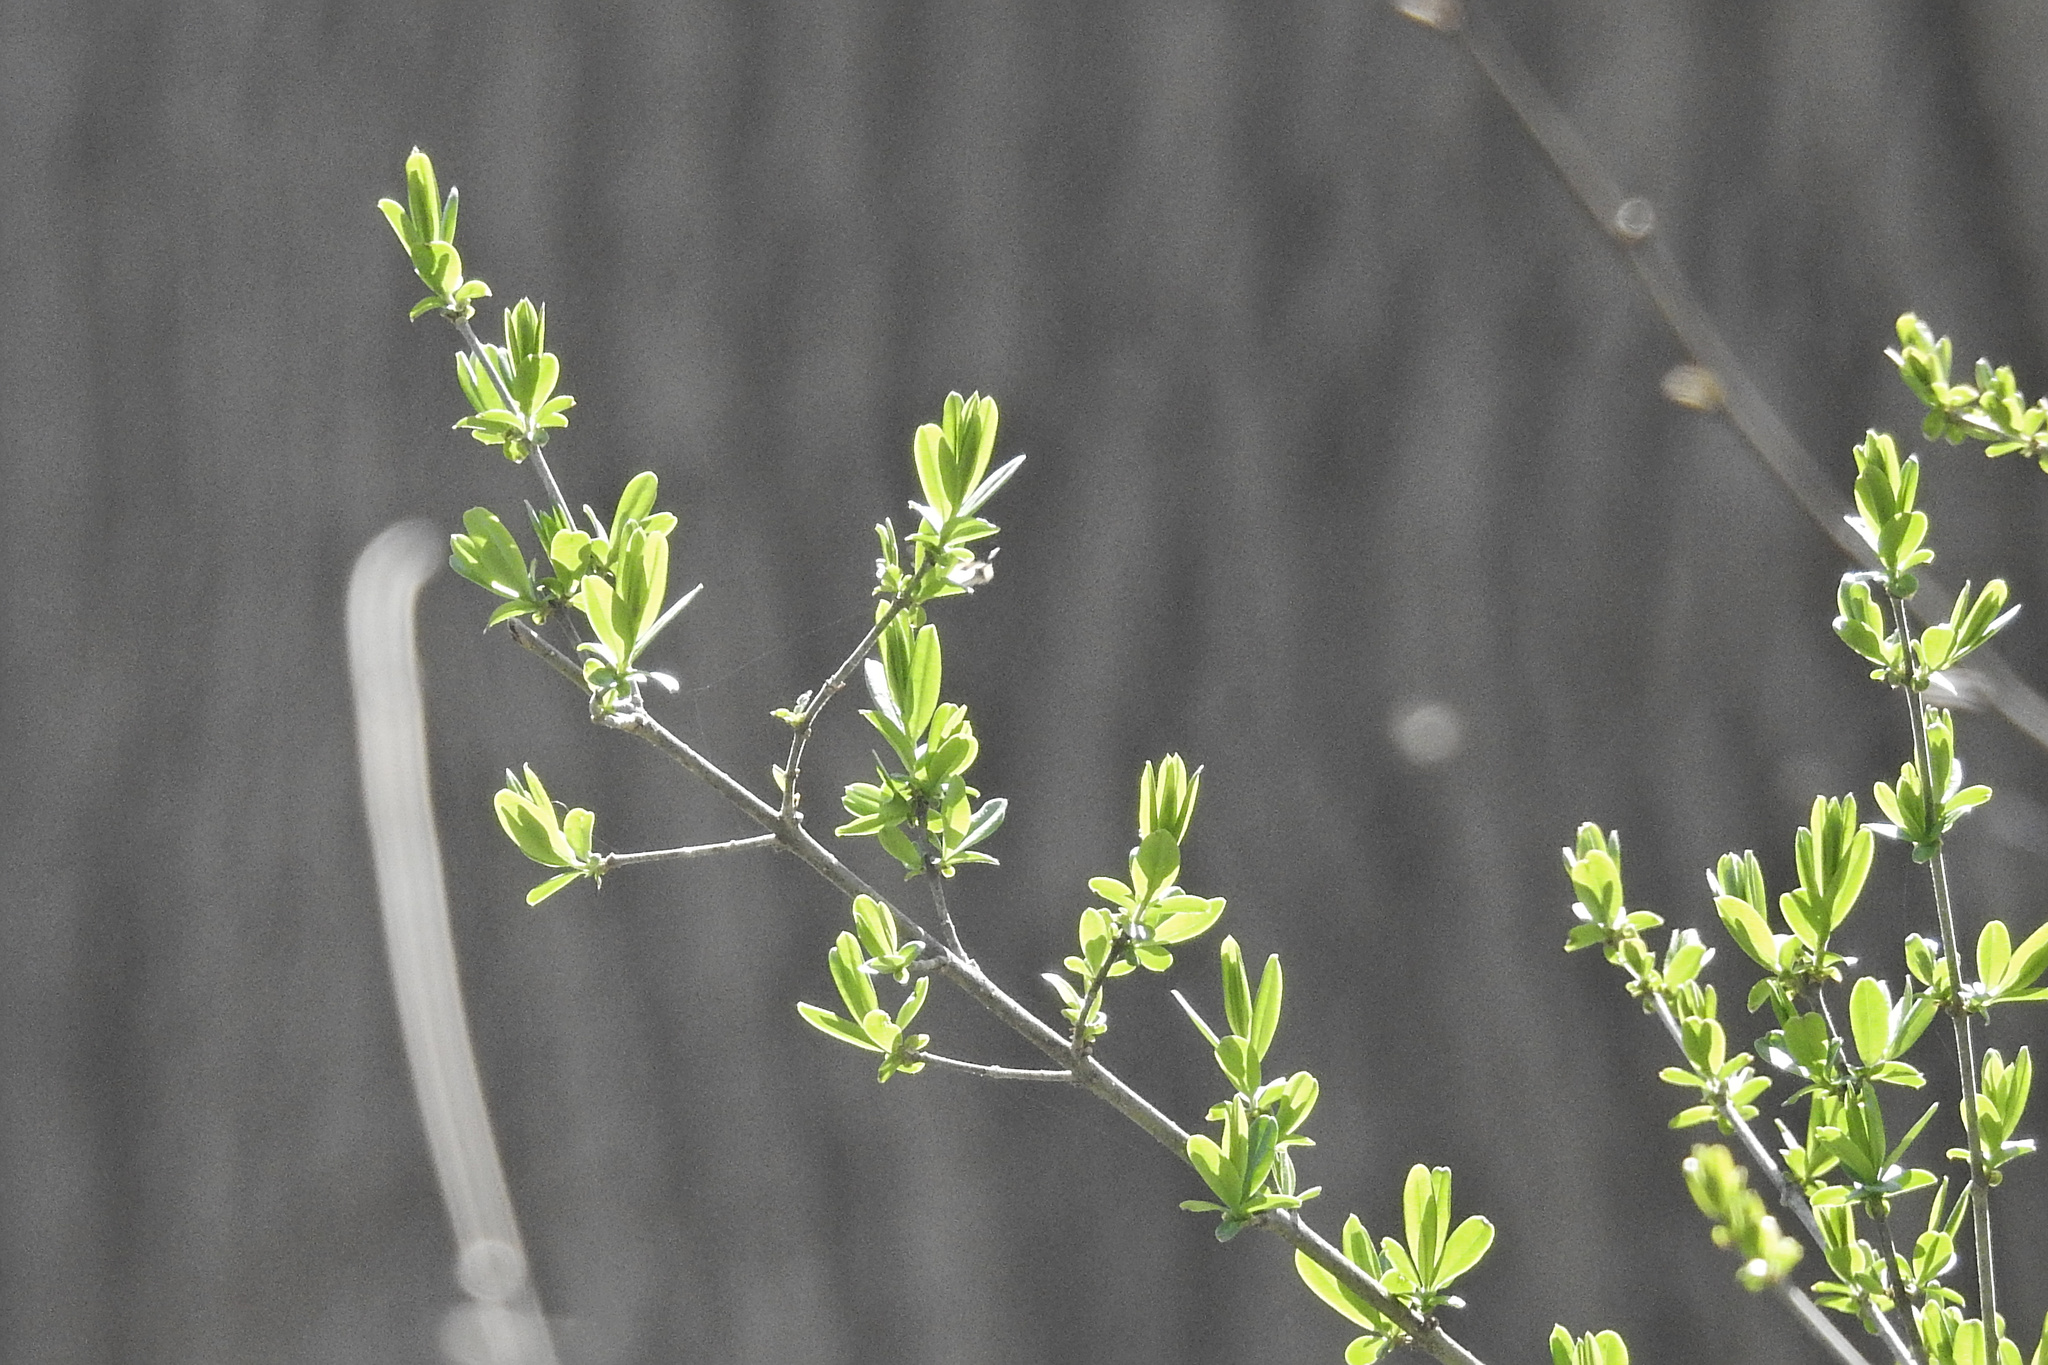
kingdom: Plantae
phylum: Tracheophyta
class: Magnoliopsida
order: Lamiales
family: Oleaceae
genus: Ligustrum
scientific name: Ligustrum obtusifolium
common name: Border privet
